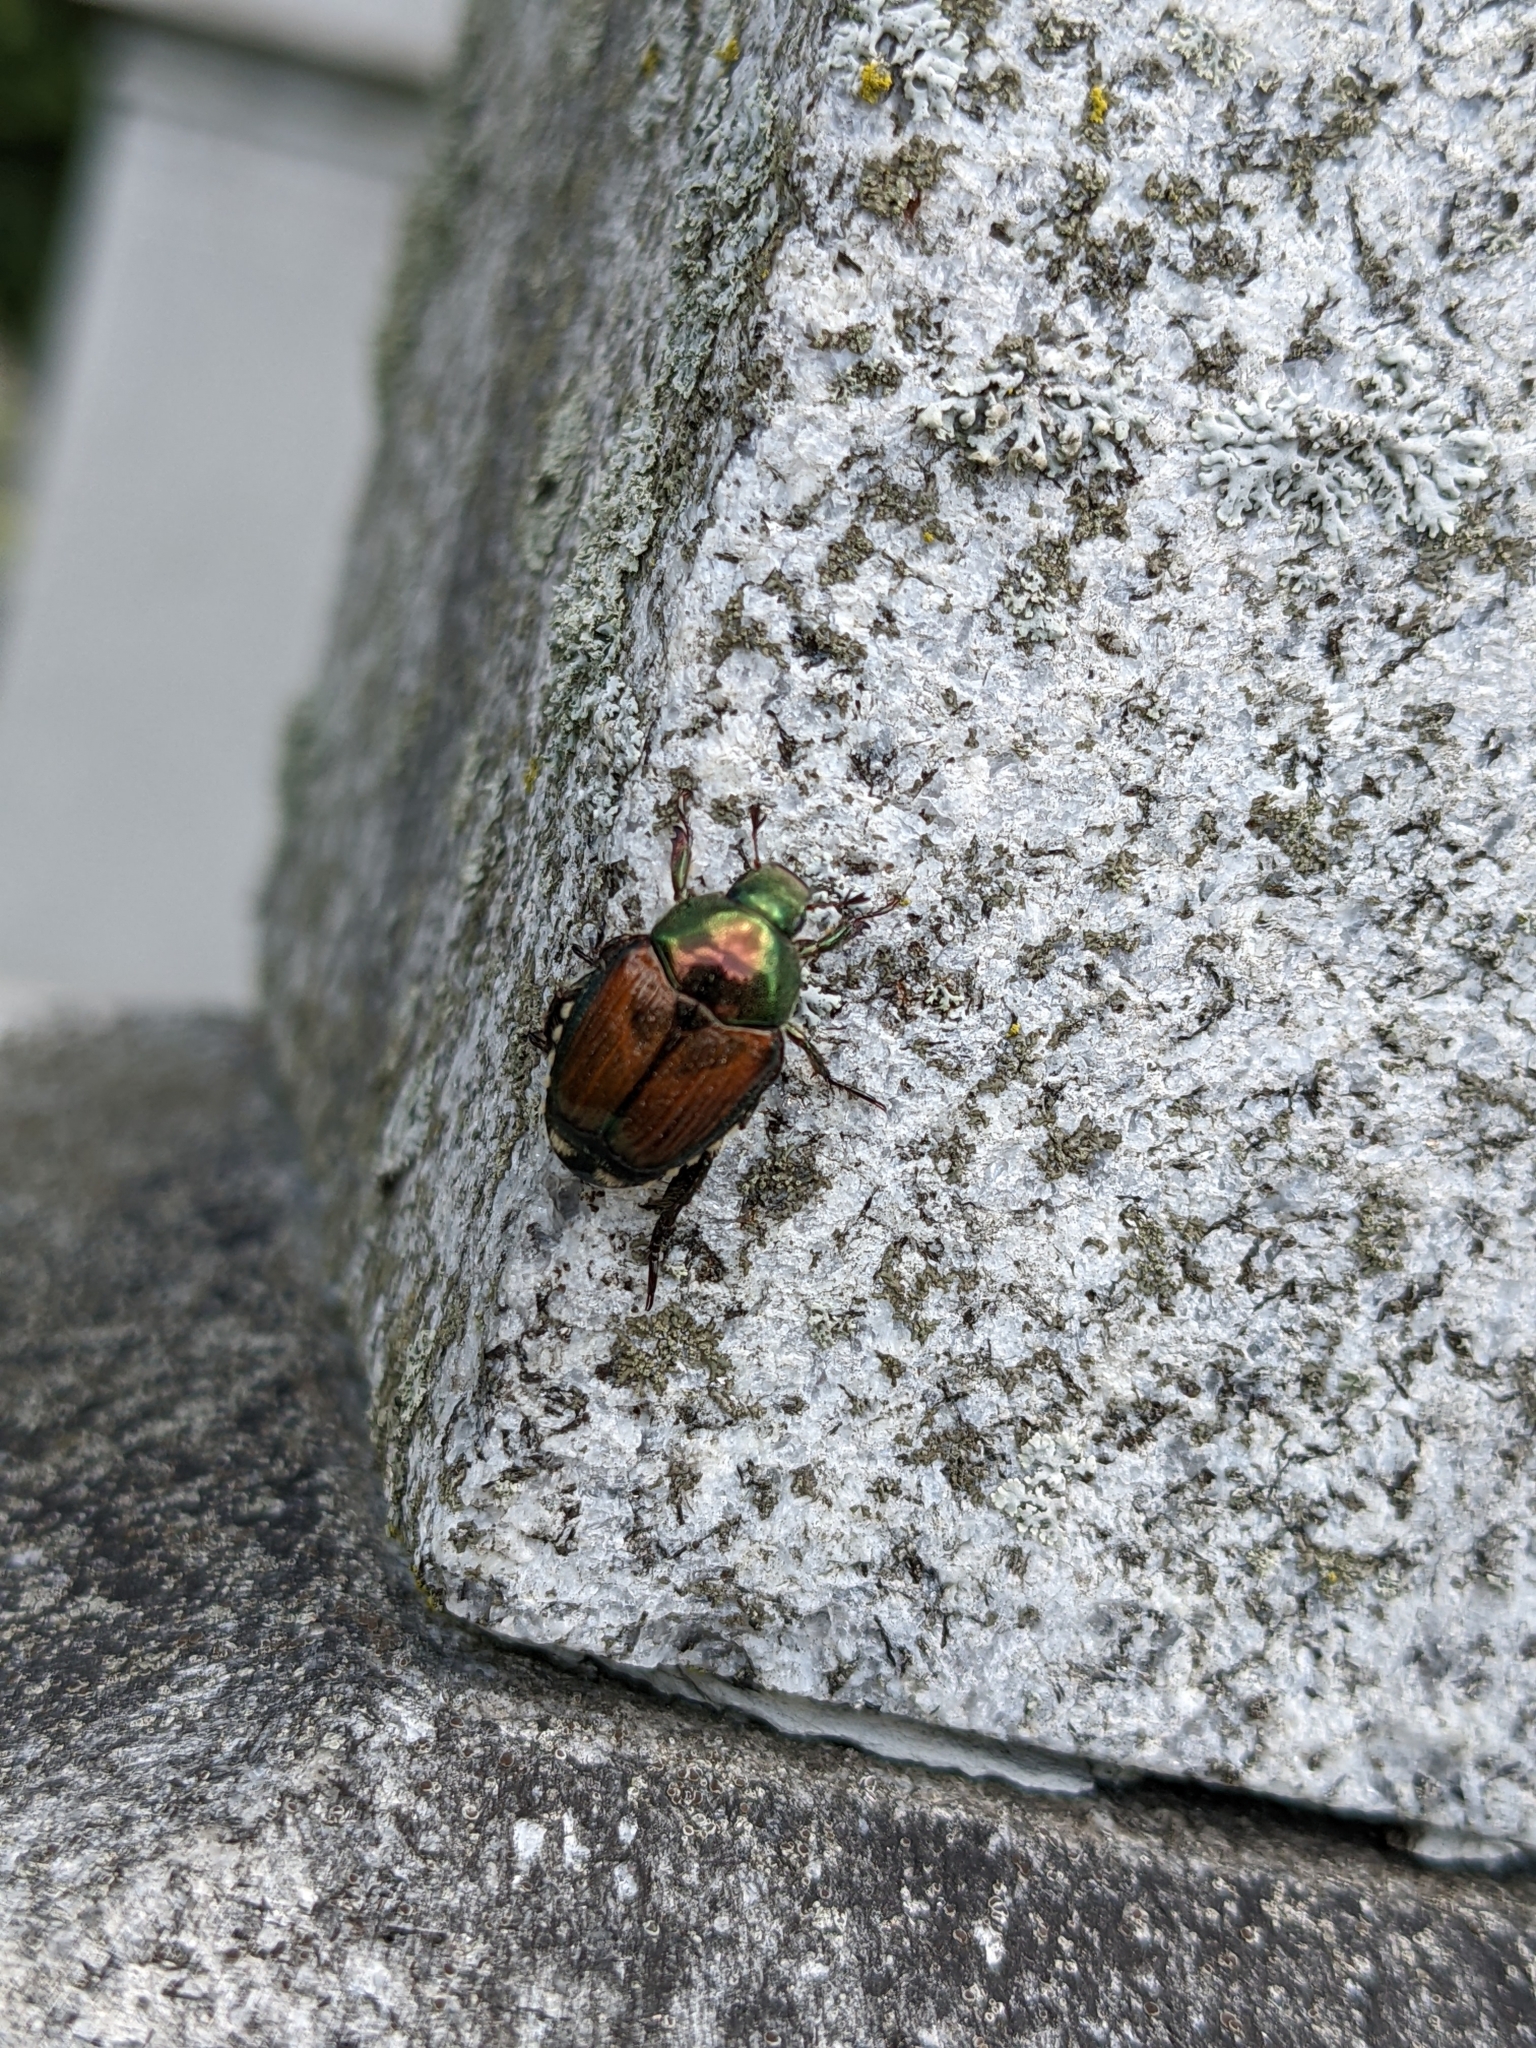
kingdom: Animalia
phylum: Arthropoda
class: Insecta
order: Coleoptera
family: Scarabaeidae
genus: Popillia
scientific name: Popillia japonica
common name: Japanese beetle
